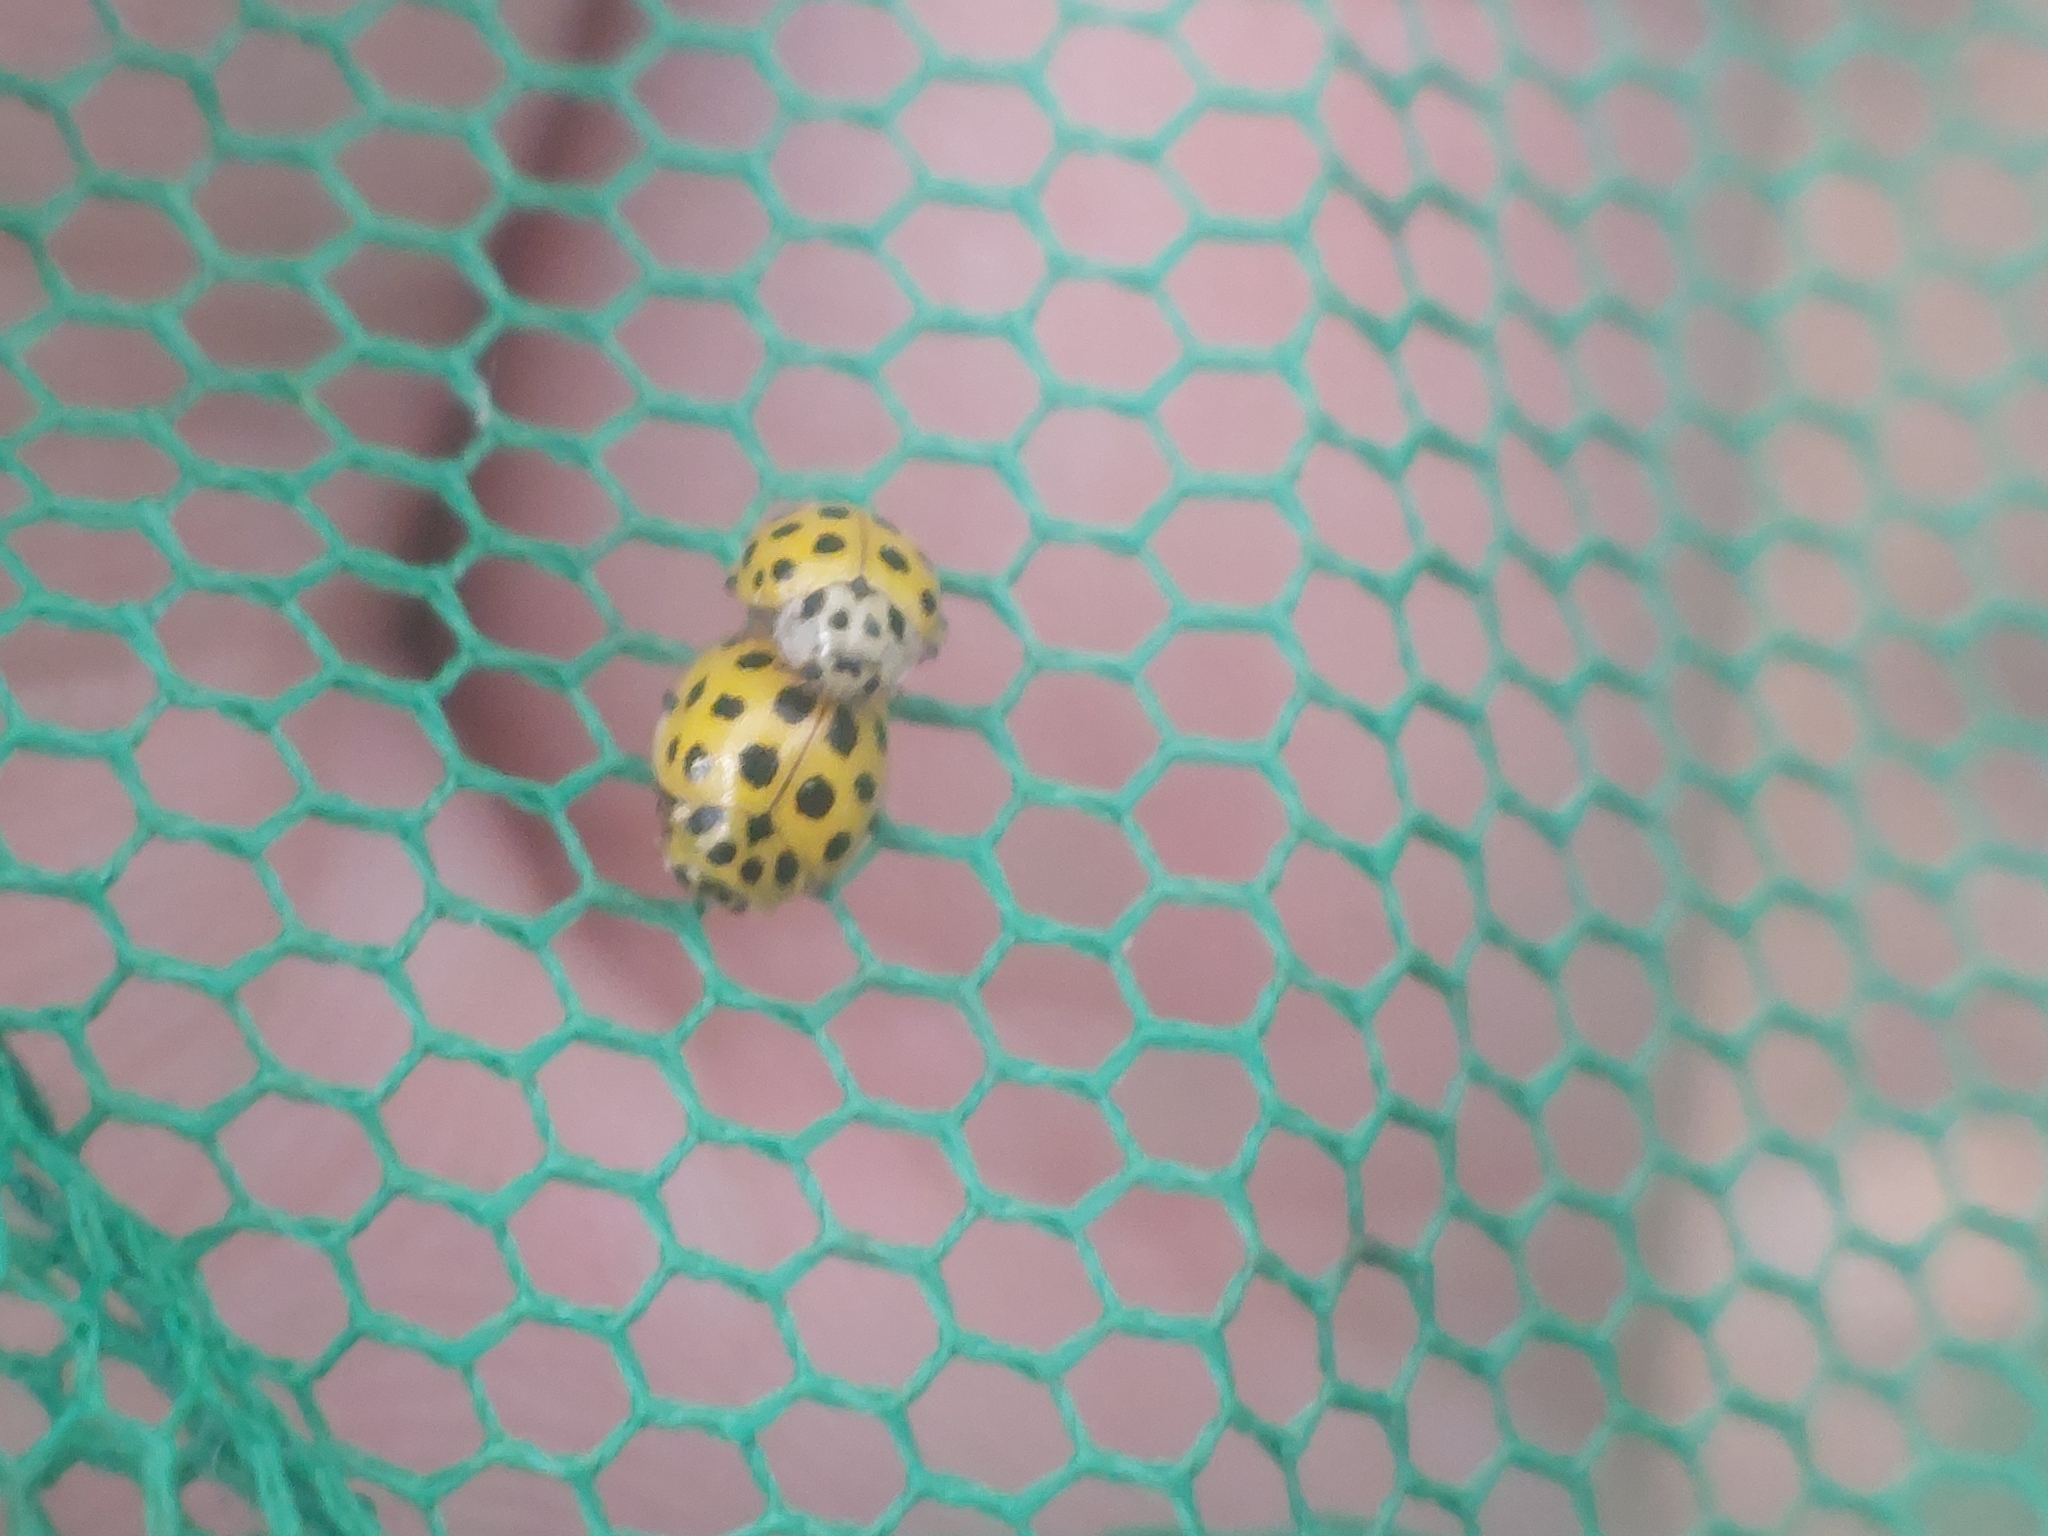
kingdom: Animalia
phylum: Arthropoda
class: Insecta
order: Coleoptera
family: Coccinellidae
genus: Psyllobora
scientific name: Psyllobora vigintiduopunctata
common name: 22-spot ladybird
